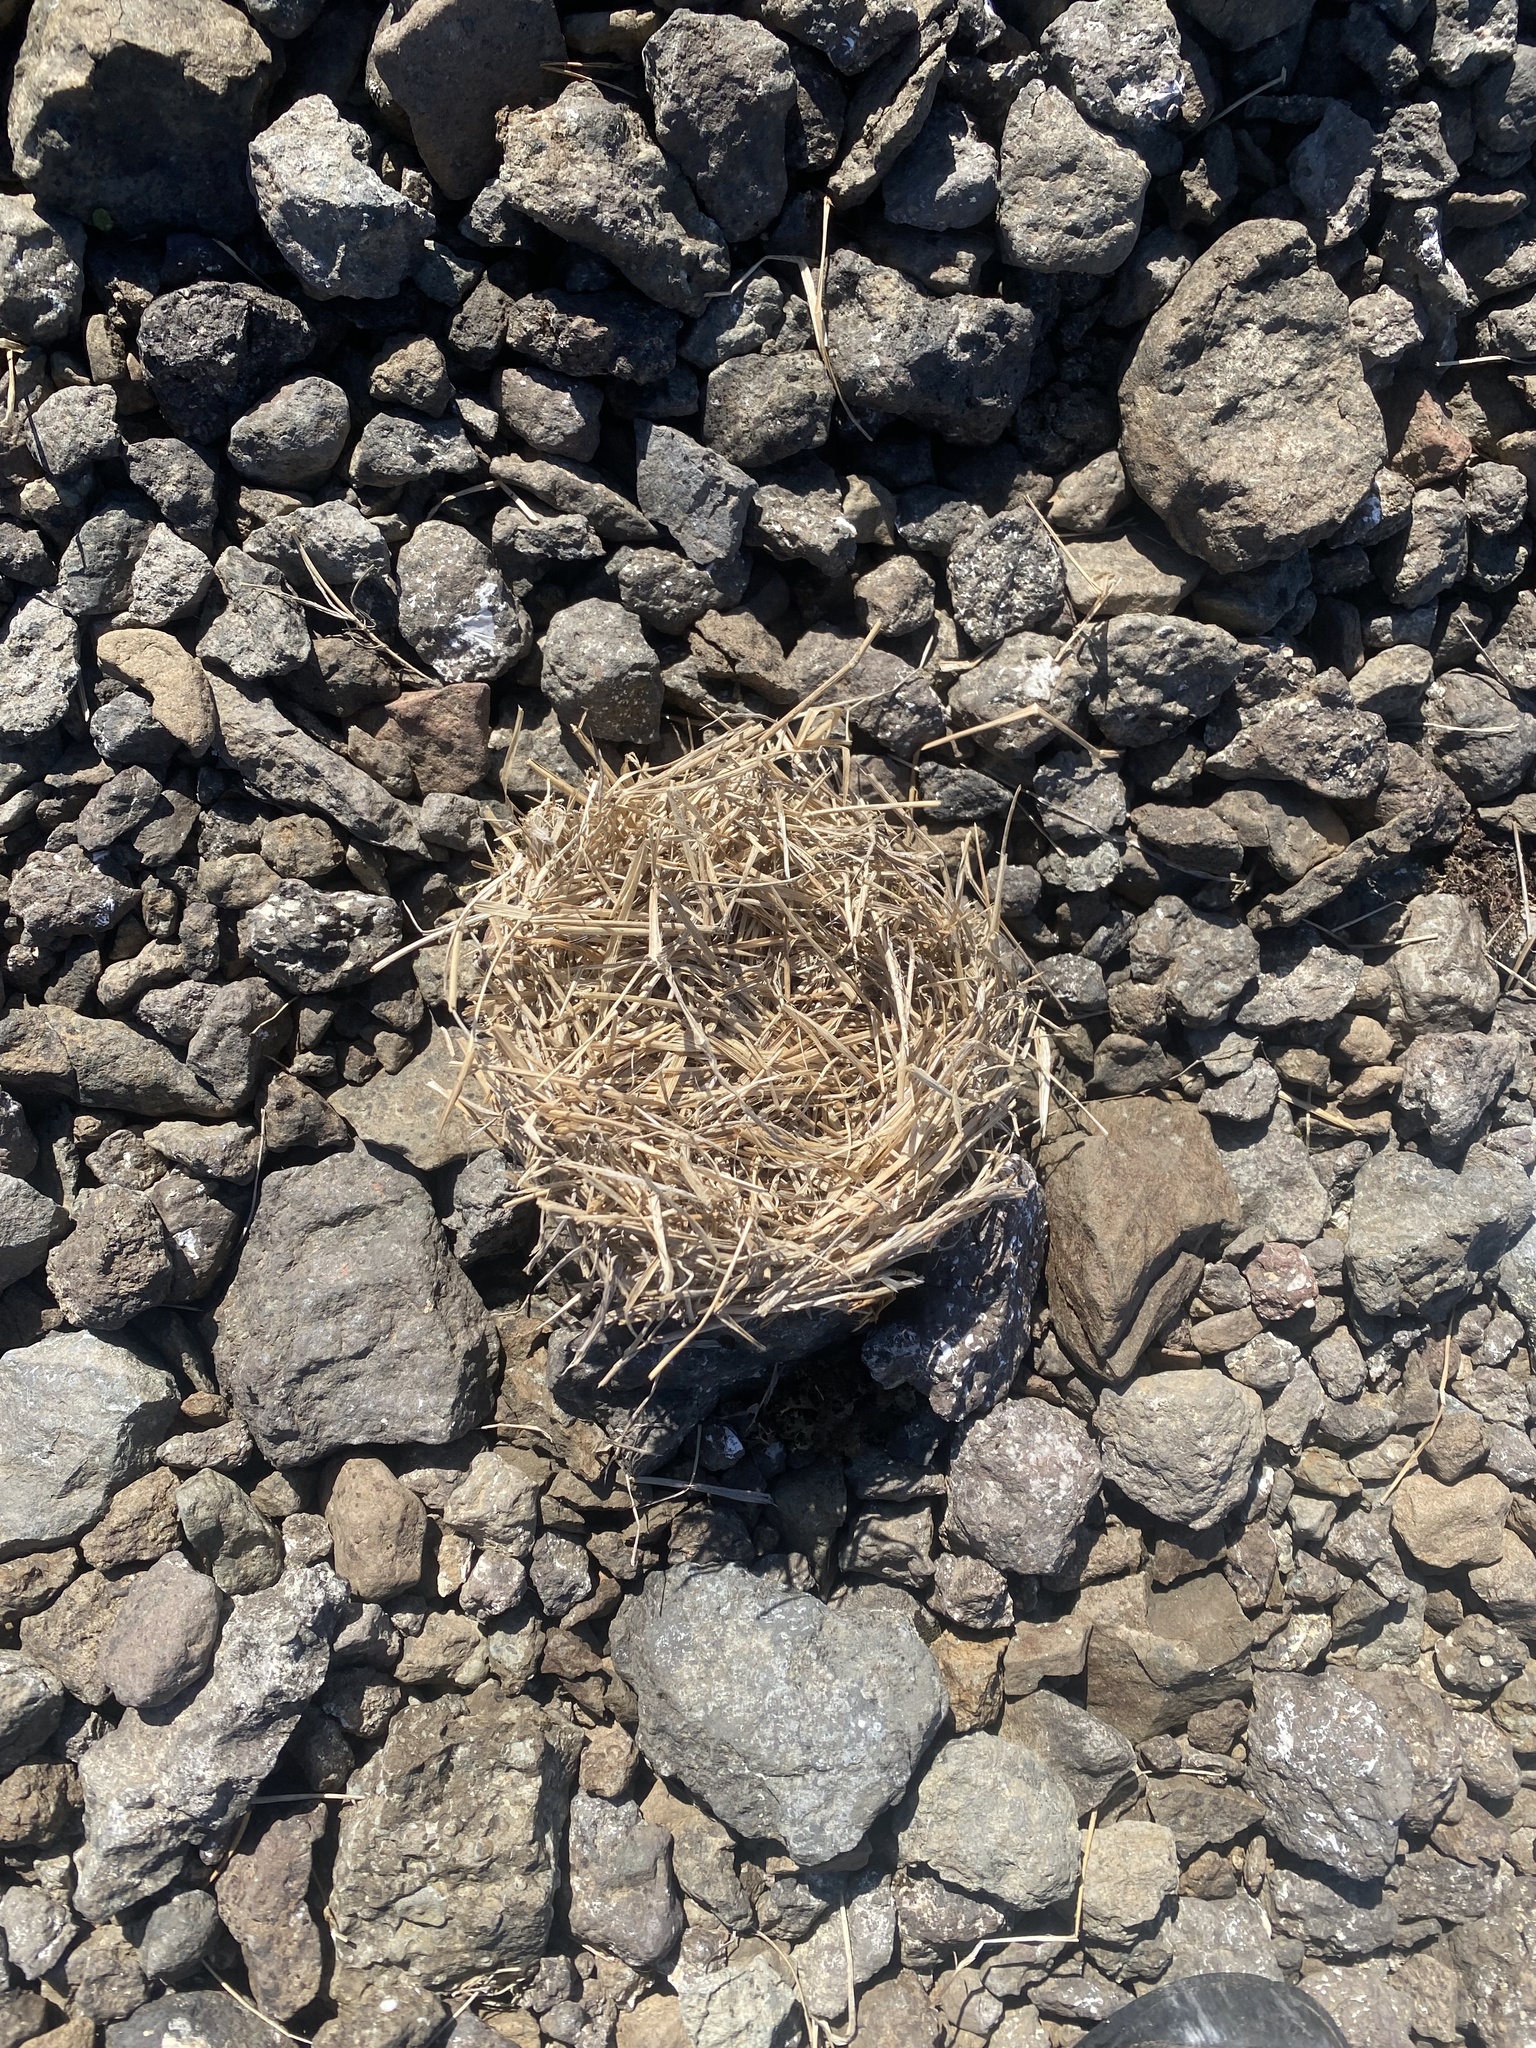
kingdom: Animalia
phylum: Chordata
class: Mammalia
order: Rodentia
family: Cricetidae
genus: Lemmus
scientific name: Lemmus sibiricus
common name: Siberian brown lemming
